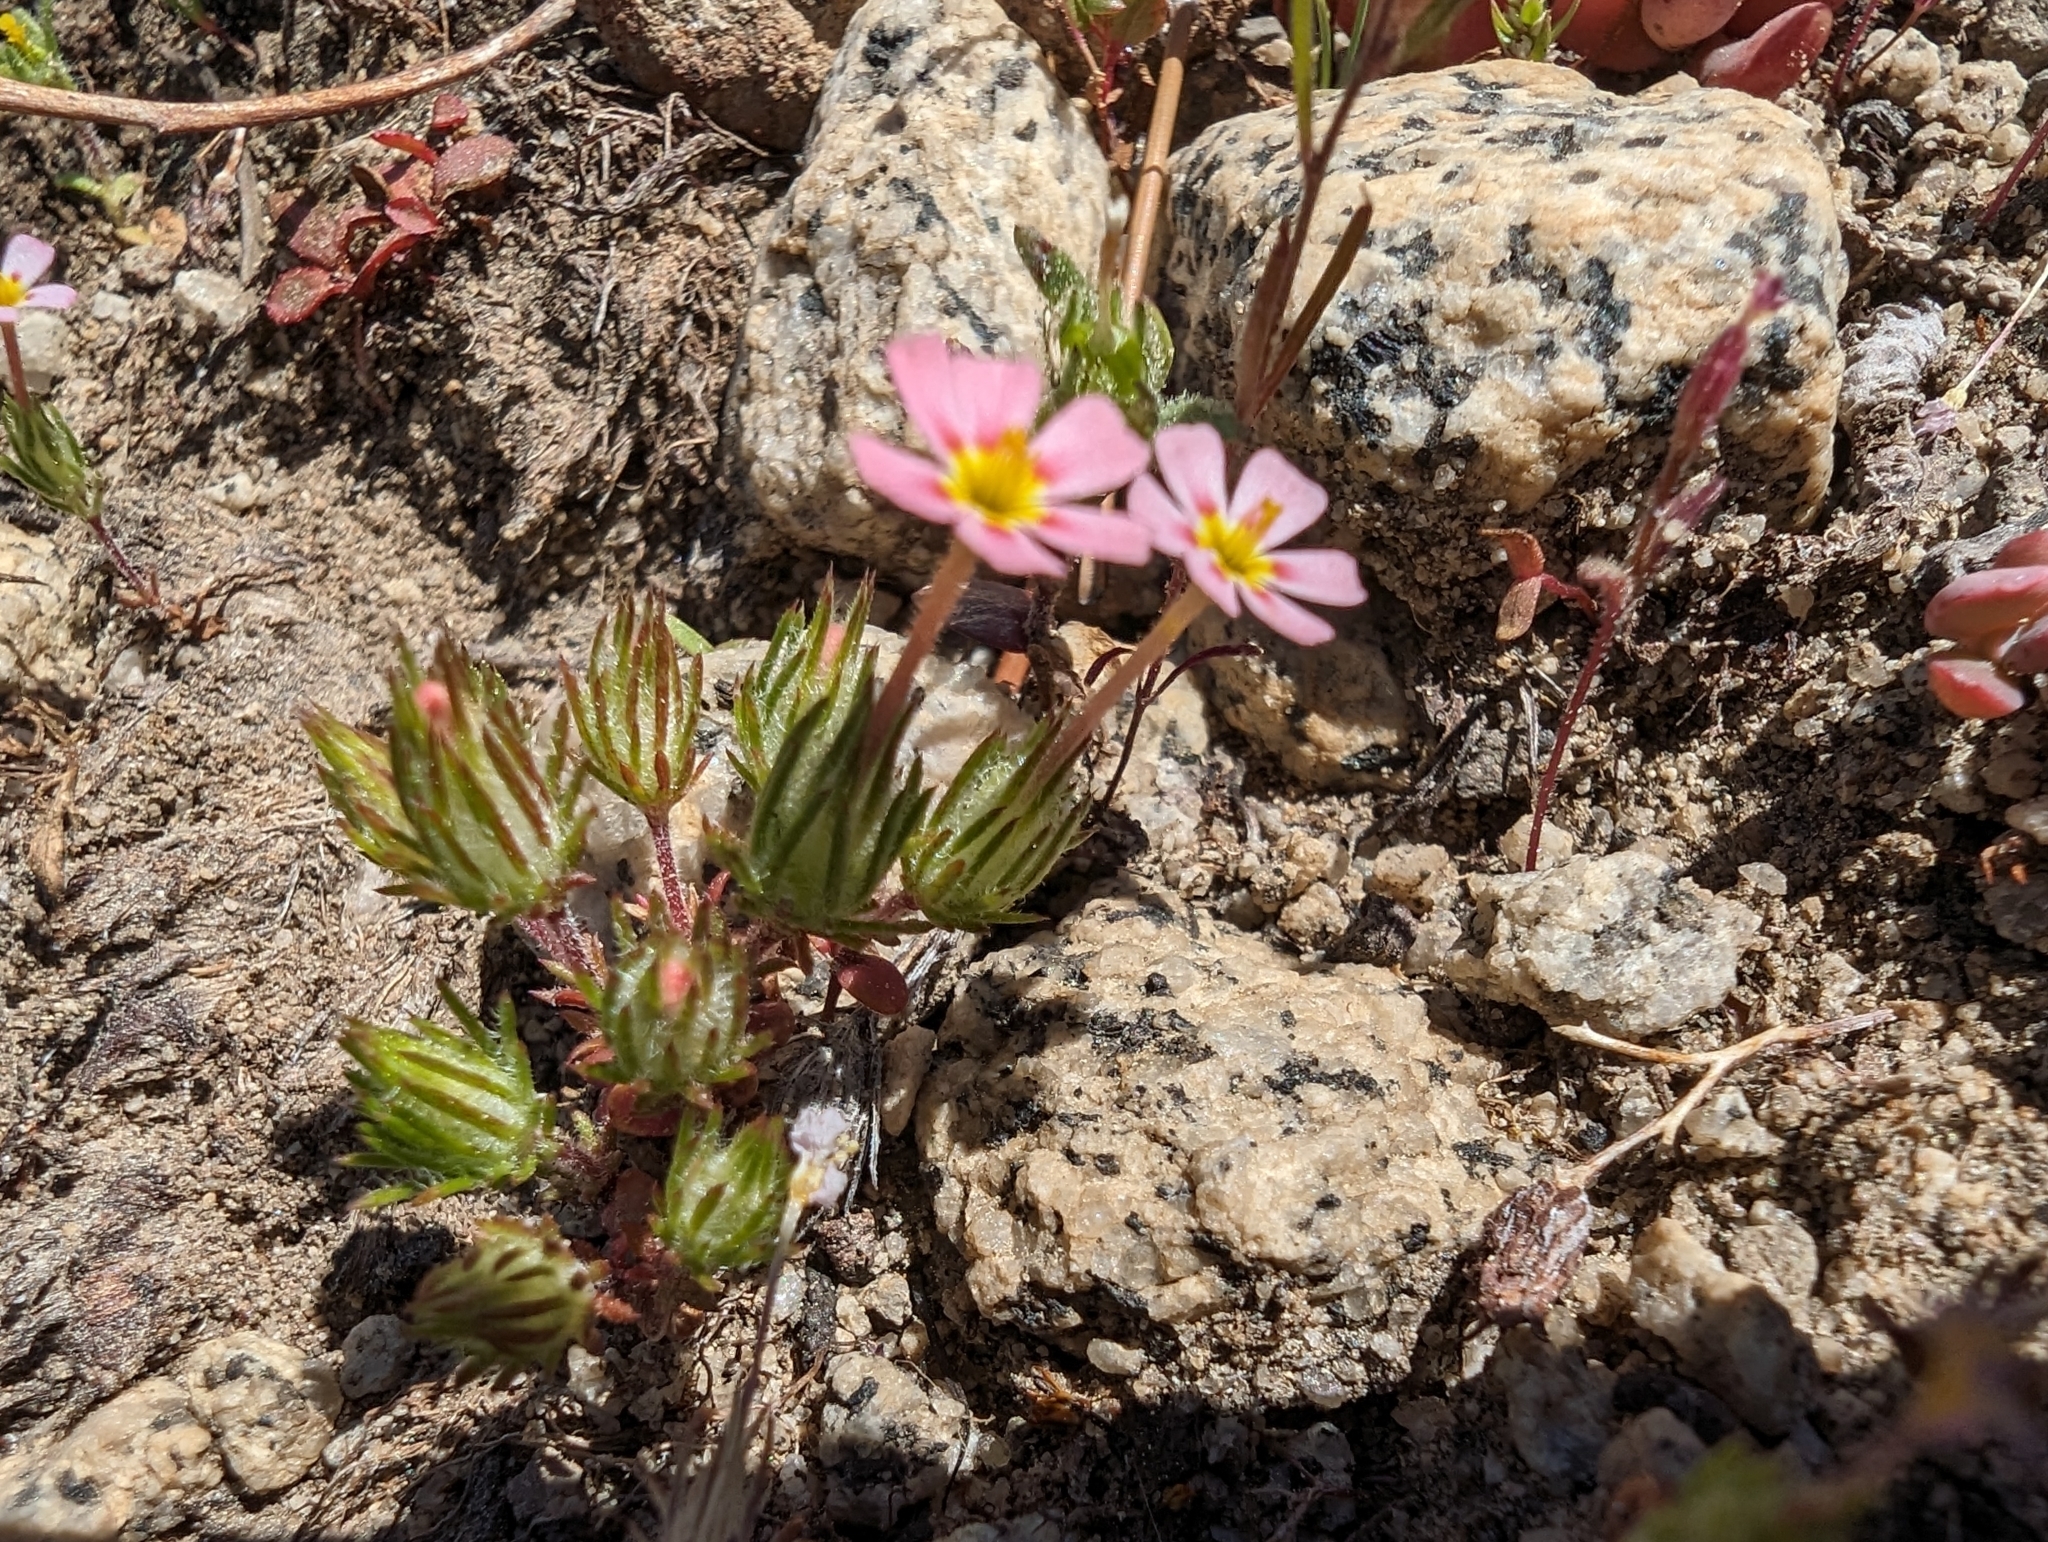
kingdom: Plantae
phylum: Tracheophyta
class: Magnoliopsida
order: Ericales
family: Polemoniaceae
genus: Leptosiphon
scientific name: Leptosiphon ciliatus
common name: Whiskerbrush
